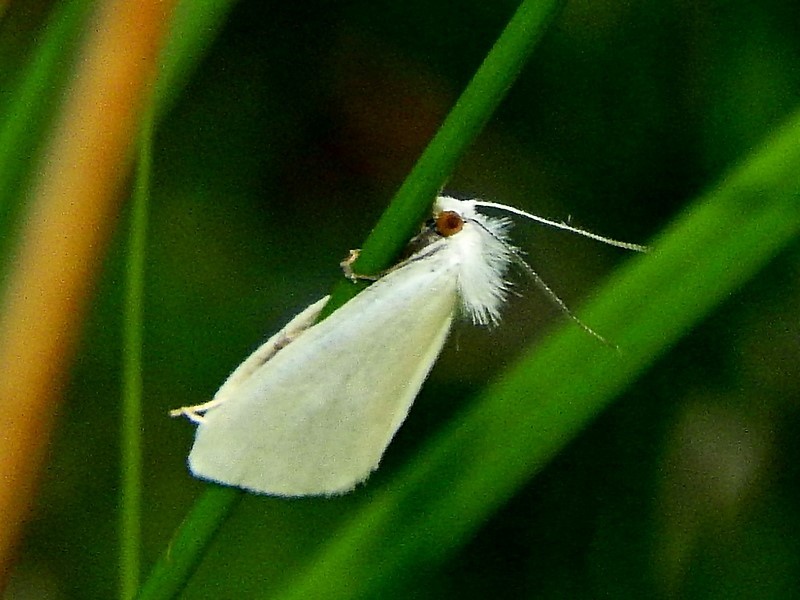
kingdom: Animalia
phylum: Arthropoda
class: Insecta
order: Lepidoptera
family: Crambidae
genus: Tipanaea
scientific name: Tipanaea patulella
